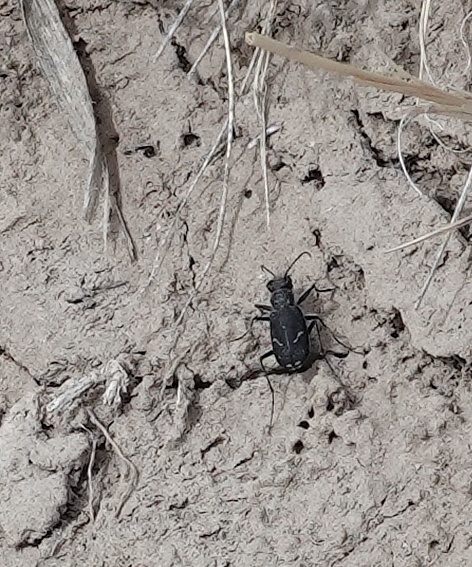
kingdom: Animalia
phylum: Arthropoda
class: Insecta
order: Coleoptera
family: Carabidae
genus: Cicindela
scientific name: Cicindela purpurea
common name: Cow path tiger beetle
